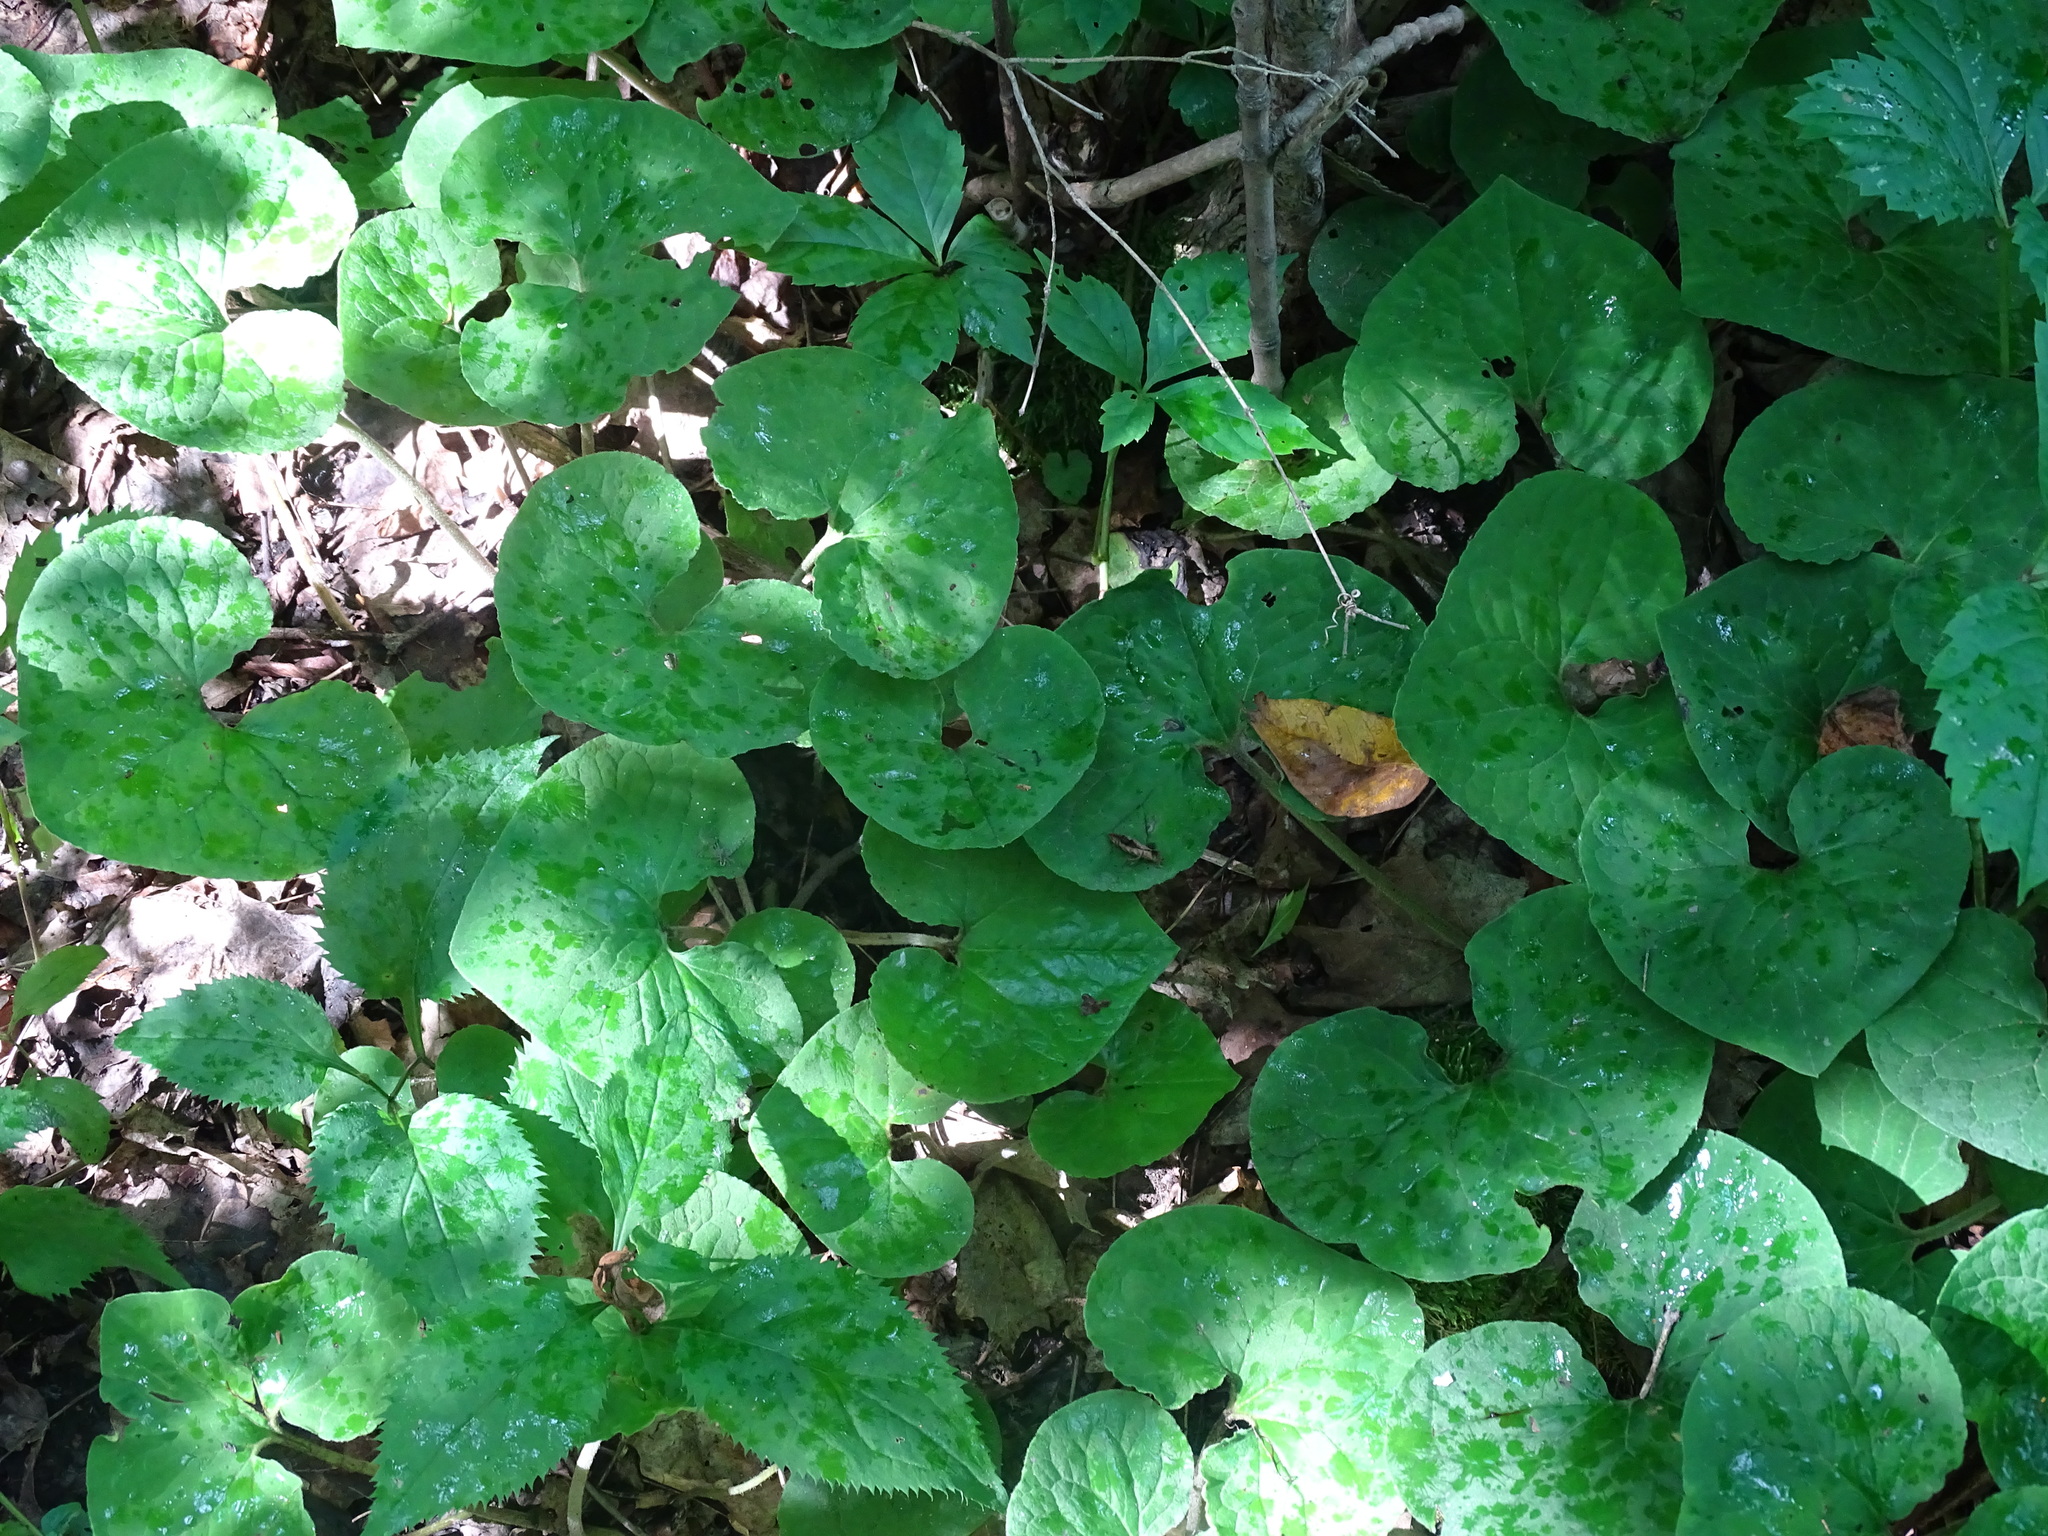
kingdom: Plantae
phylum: Tracheophyta
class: Magnoliopsida
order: Piperales
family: Aristolochiaceae
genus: Asarum
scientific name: Asarum canadense
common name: Wild ginger
